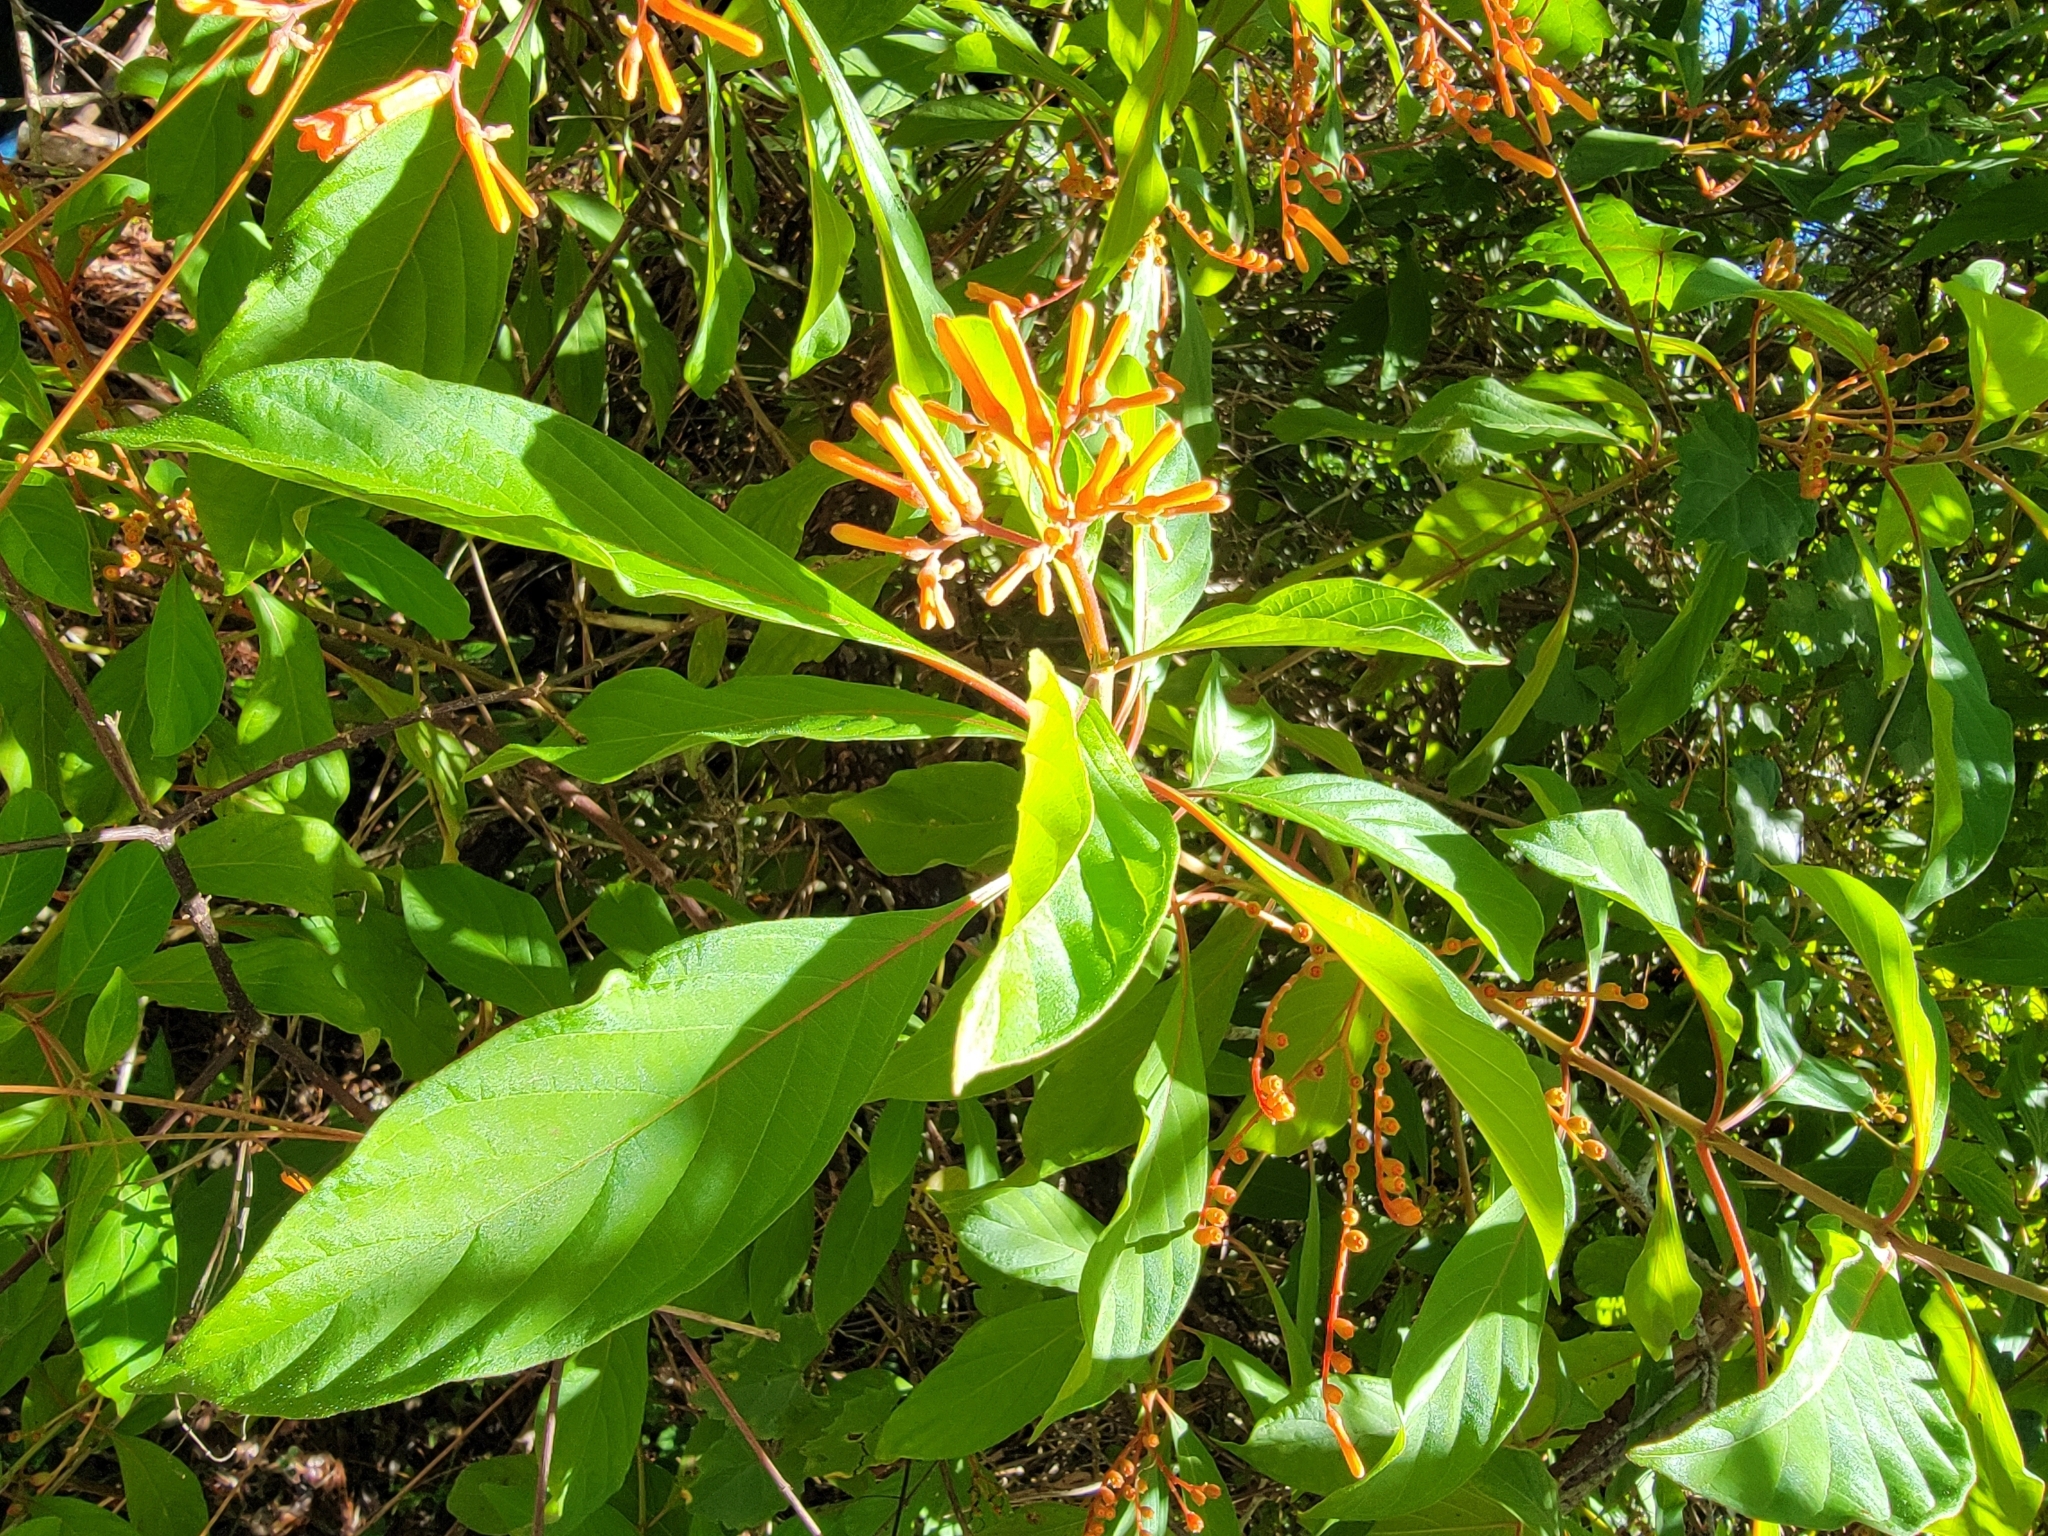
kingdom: Plantae
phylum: Tracheophyta
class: Magnoliopsida
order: Gentianales
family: Rubiaceae
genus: Hamelia
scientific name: Hamelia patens
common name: Redhead
